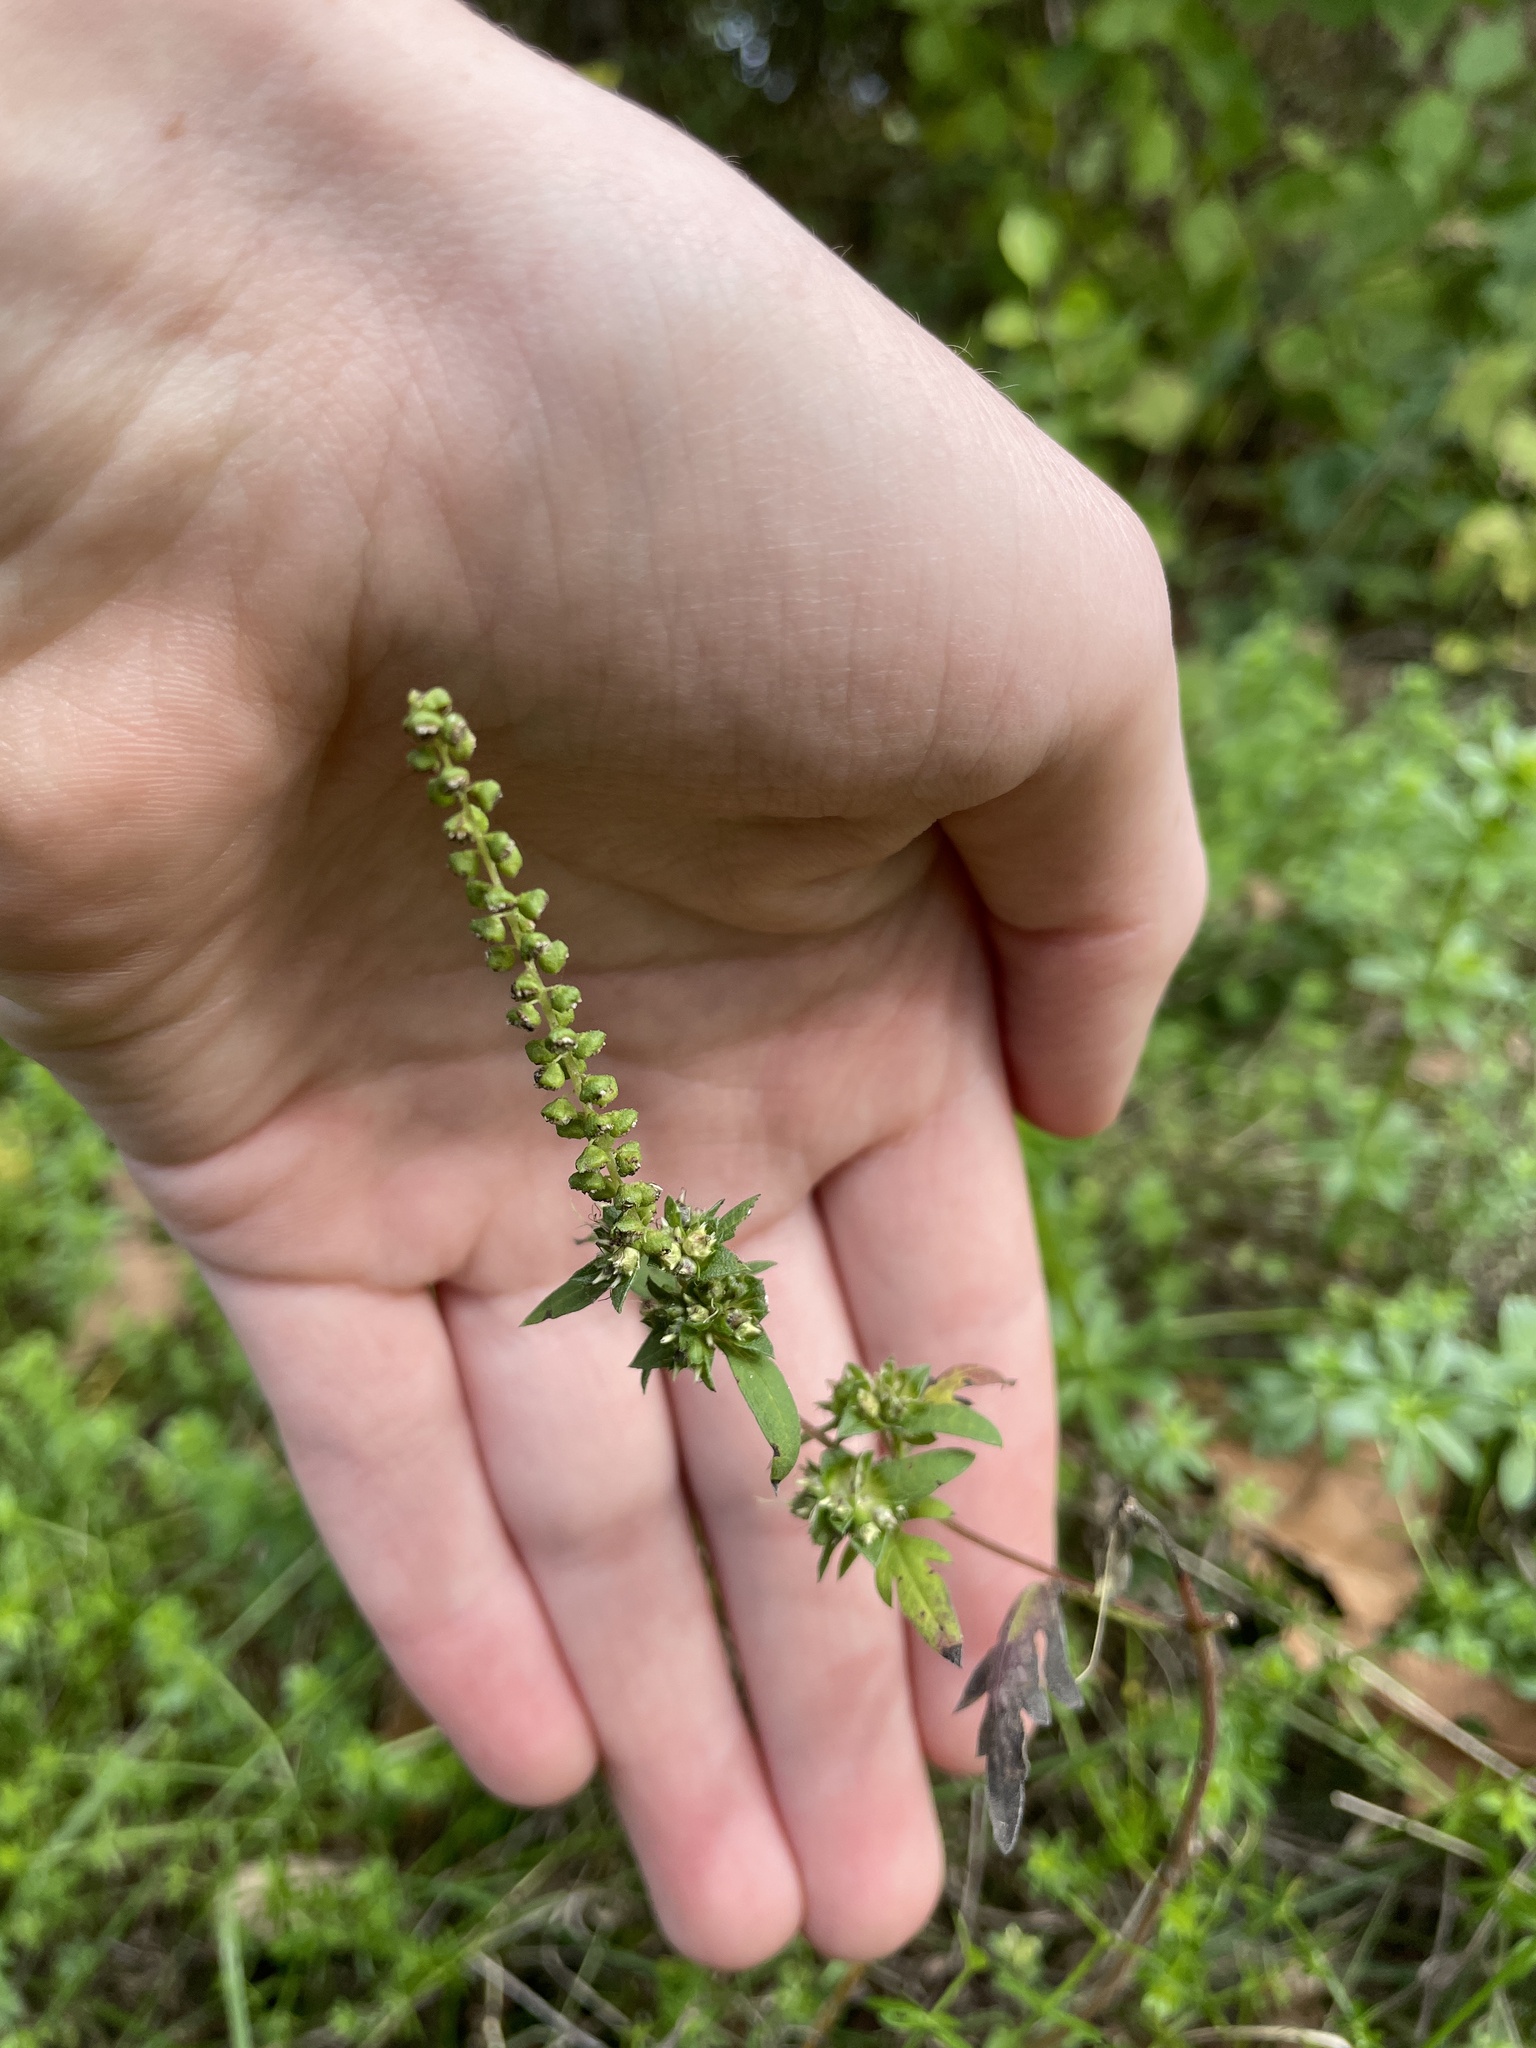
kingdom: Plantae
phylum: Tracheophyta
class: Magnoliopsida
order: Asterales
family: Asteraceae
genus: Ambrosia
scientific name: Ambrosia artemisiifolia
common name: Annual ragweed
